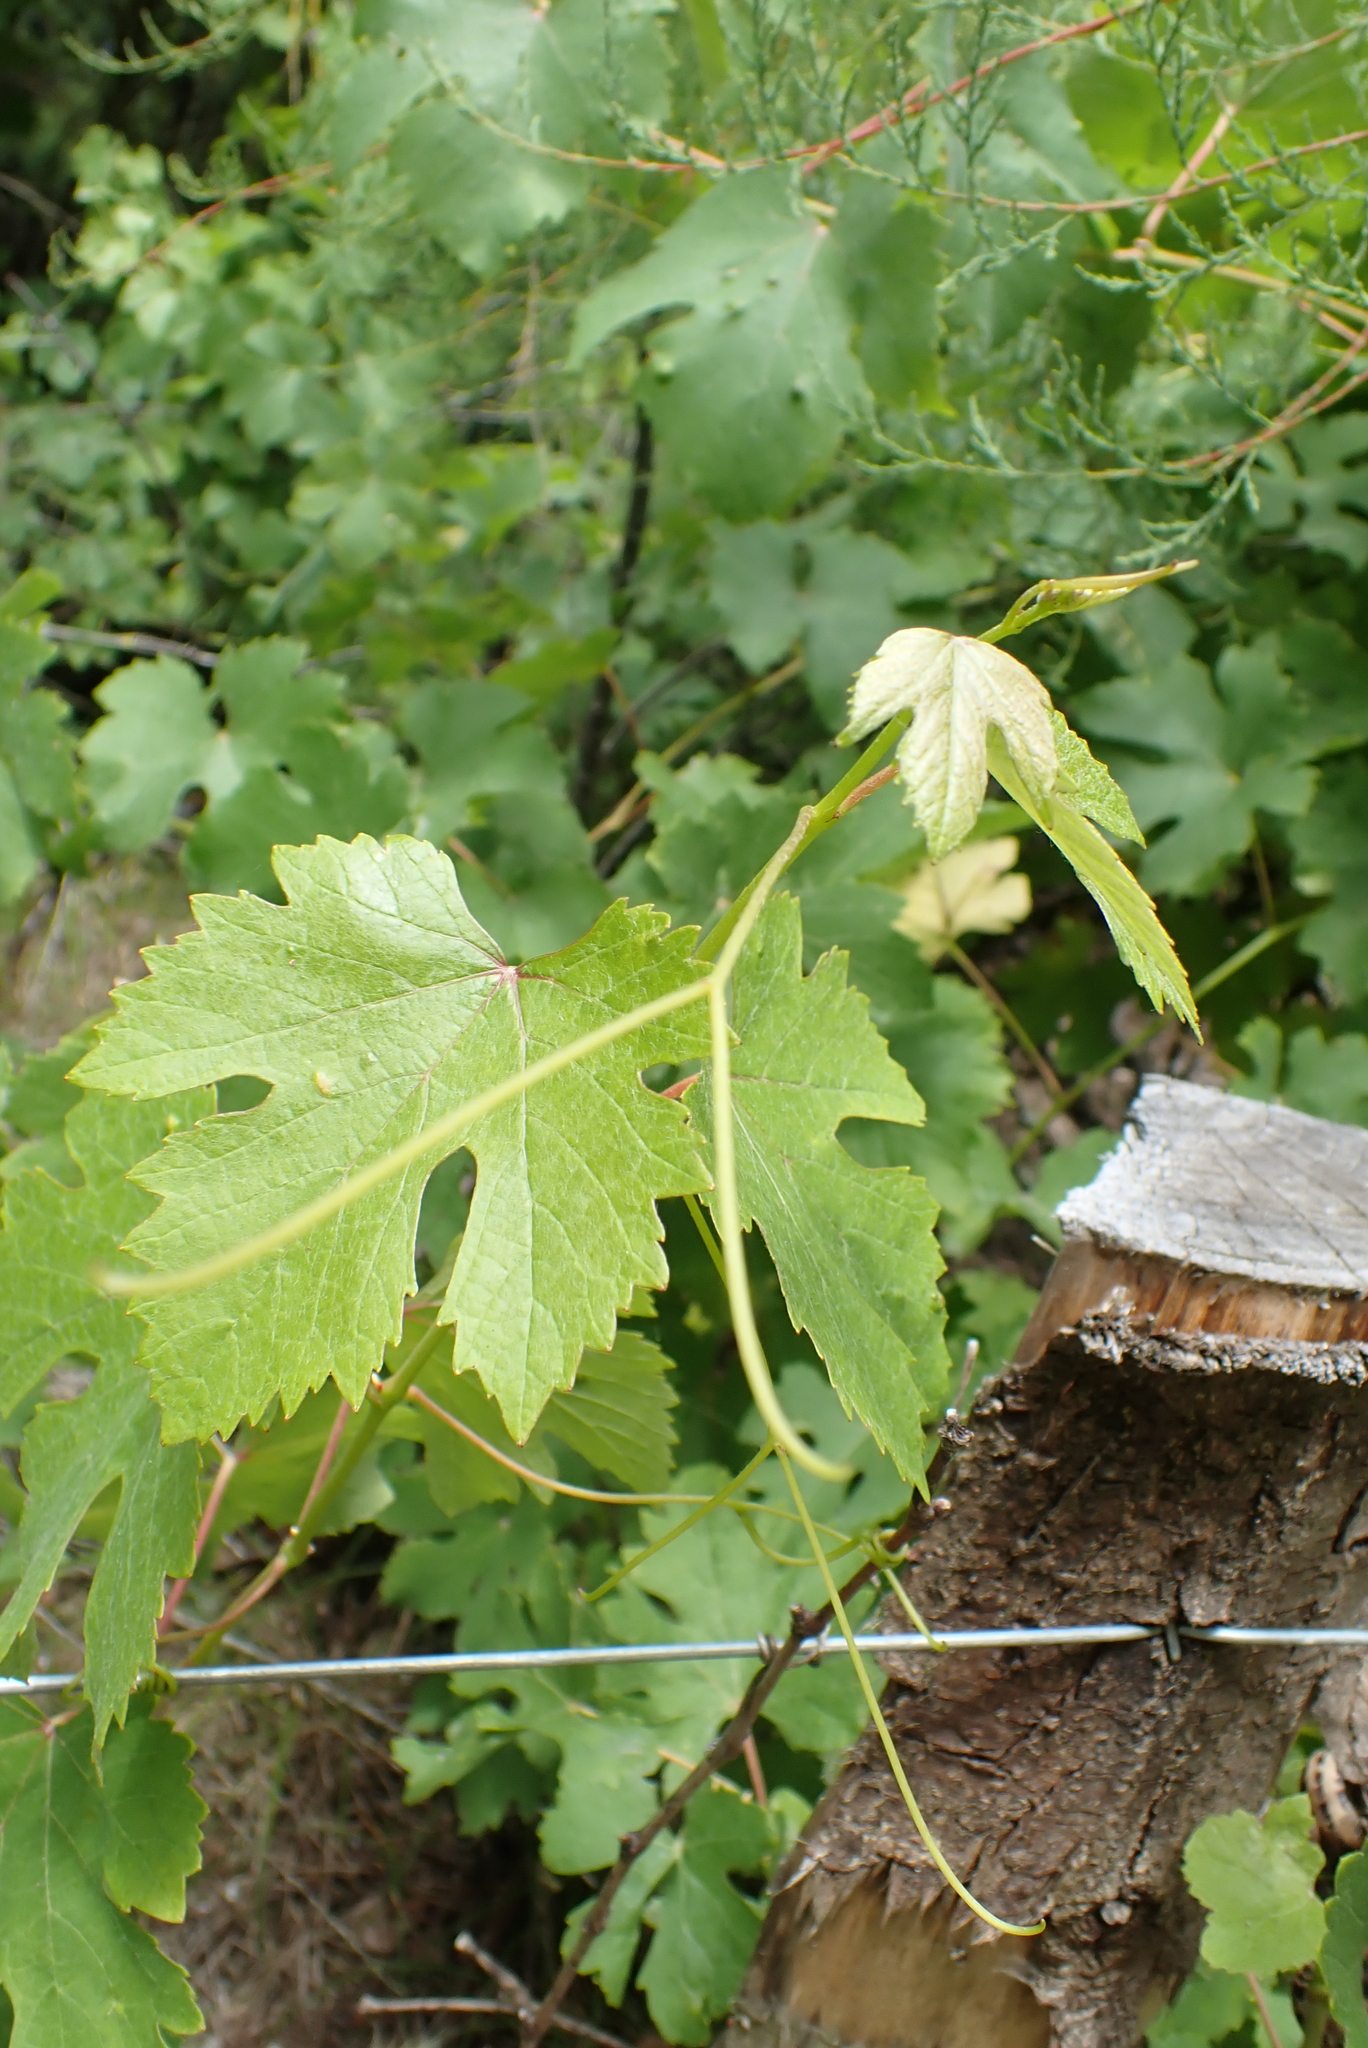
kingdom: Plantae
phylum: Tracheophyta
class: Magnoliopsida
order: Vitales
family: Vitaceae
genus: Vitis
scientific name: Vitis vinifera
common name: Grape-vine
